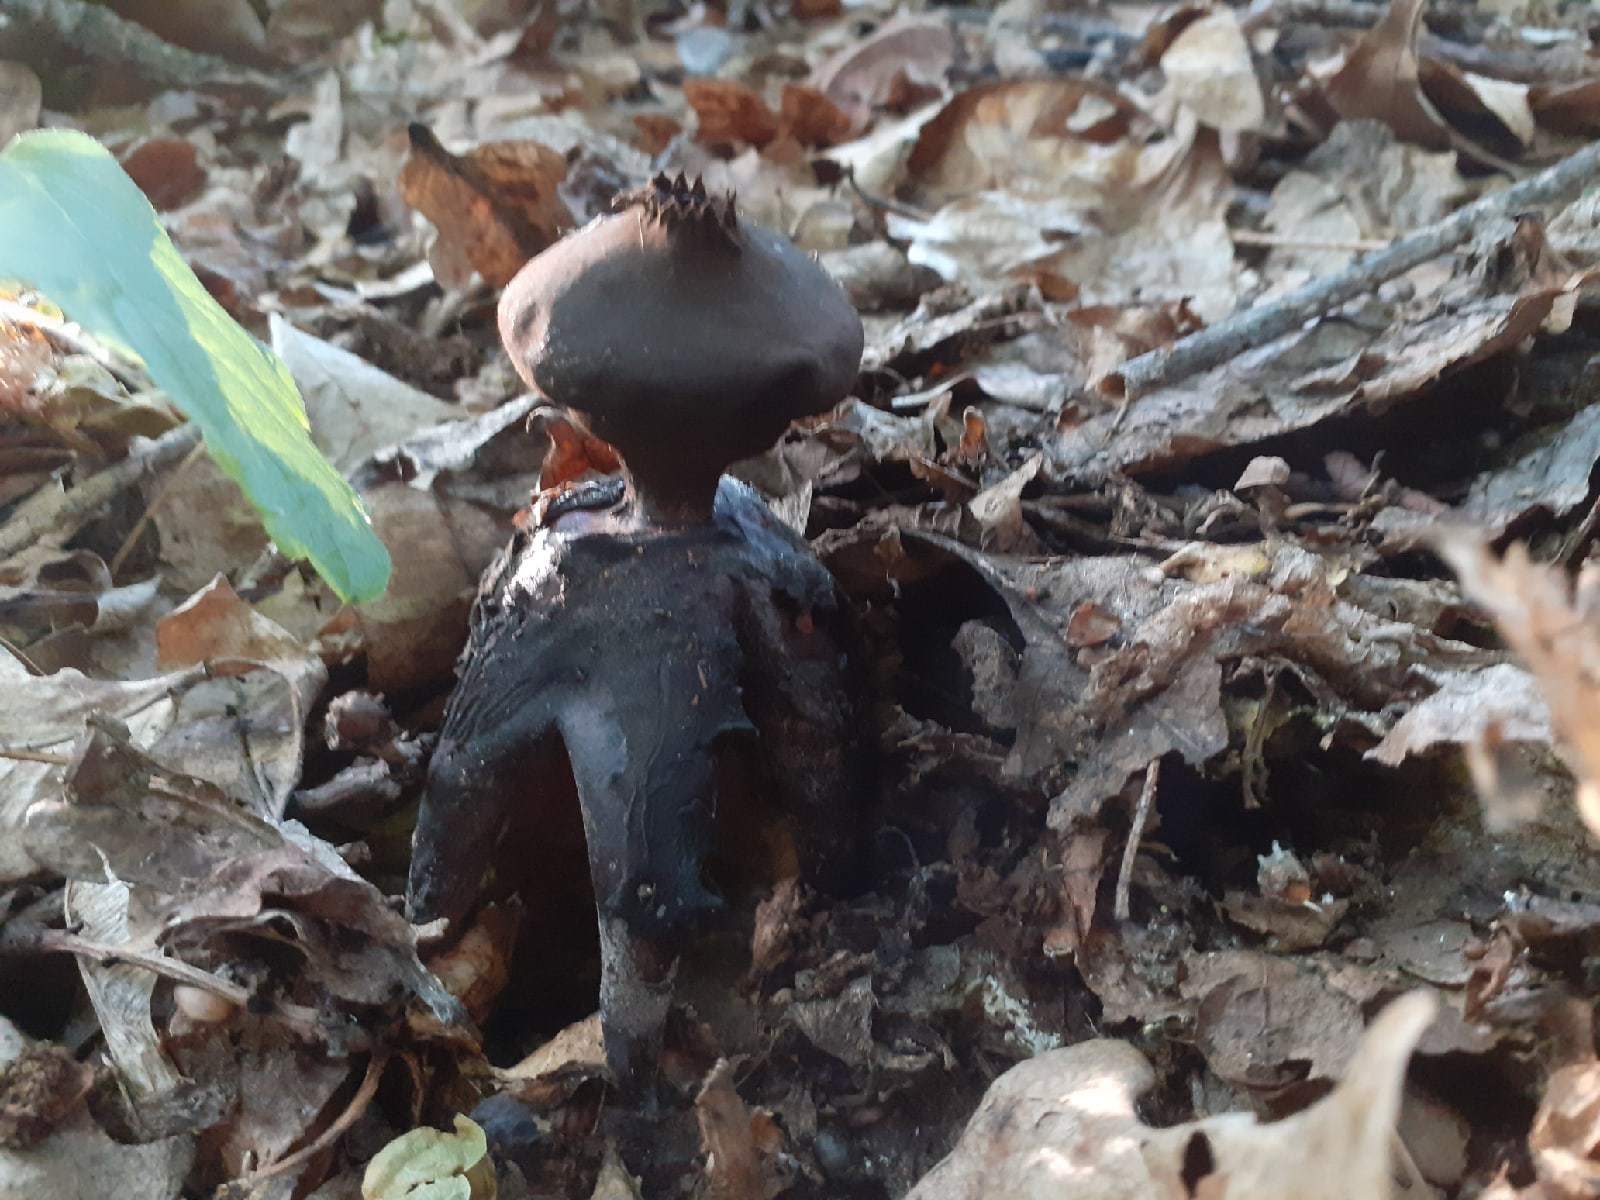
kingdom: Fungi
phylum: Basidiomycota
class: Agaricomycetes
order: Geastrales
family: Geastraceae
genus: Geastrum
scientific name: Geastrum fornicatum
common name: Arched earthstar
